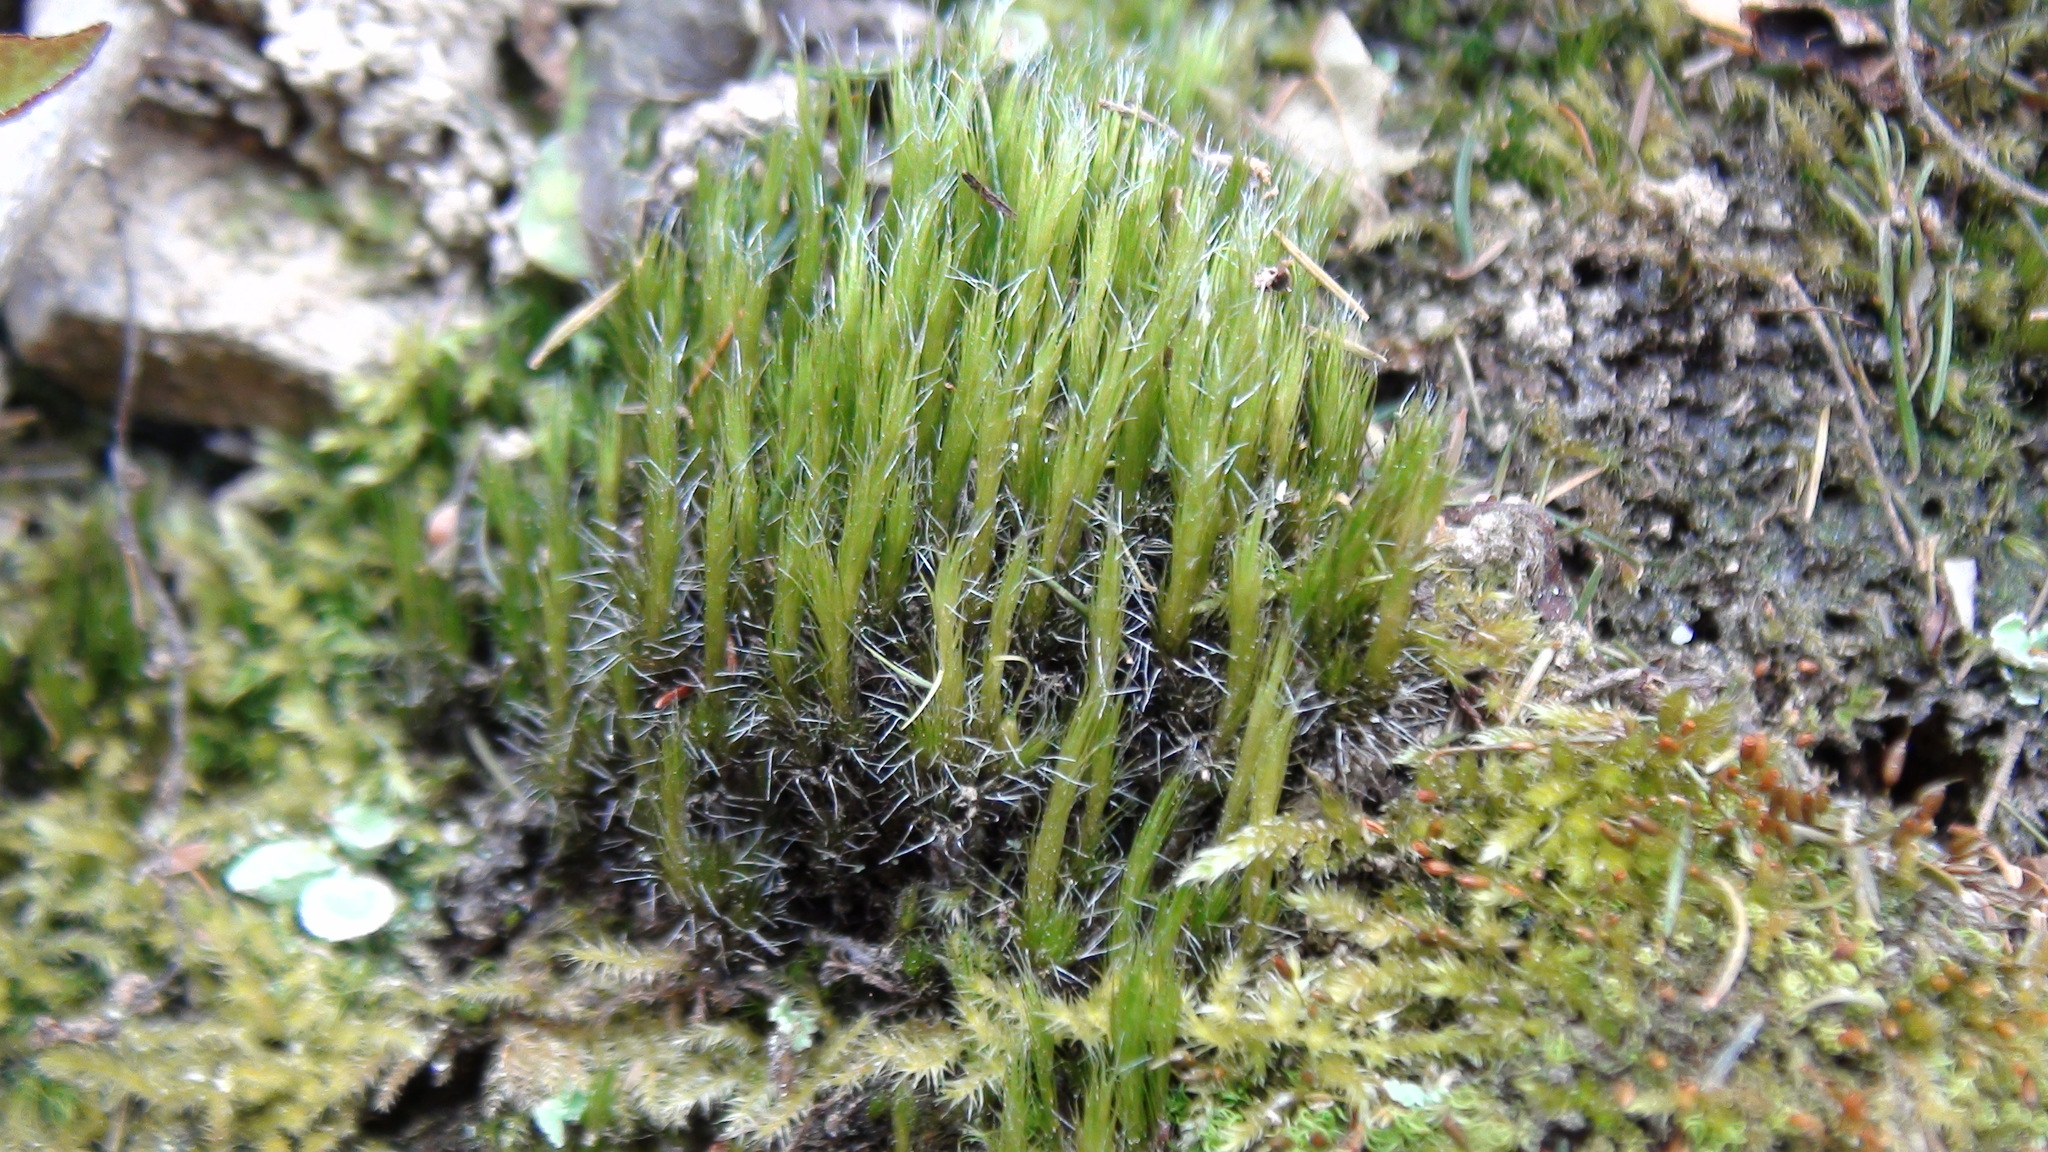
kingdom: Plantae
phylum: Bryophyta
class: Bryopsida
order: Dicranales
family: Leucobryaceae
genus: Campylopus
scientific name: Campylopus introflexus
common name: Heath star moss
